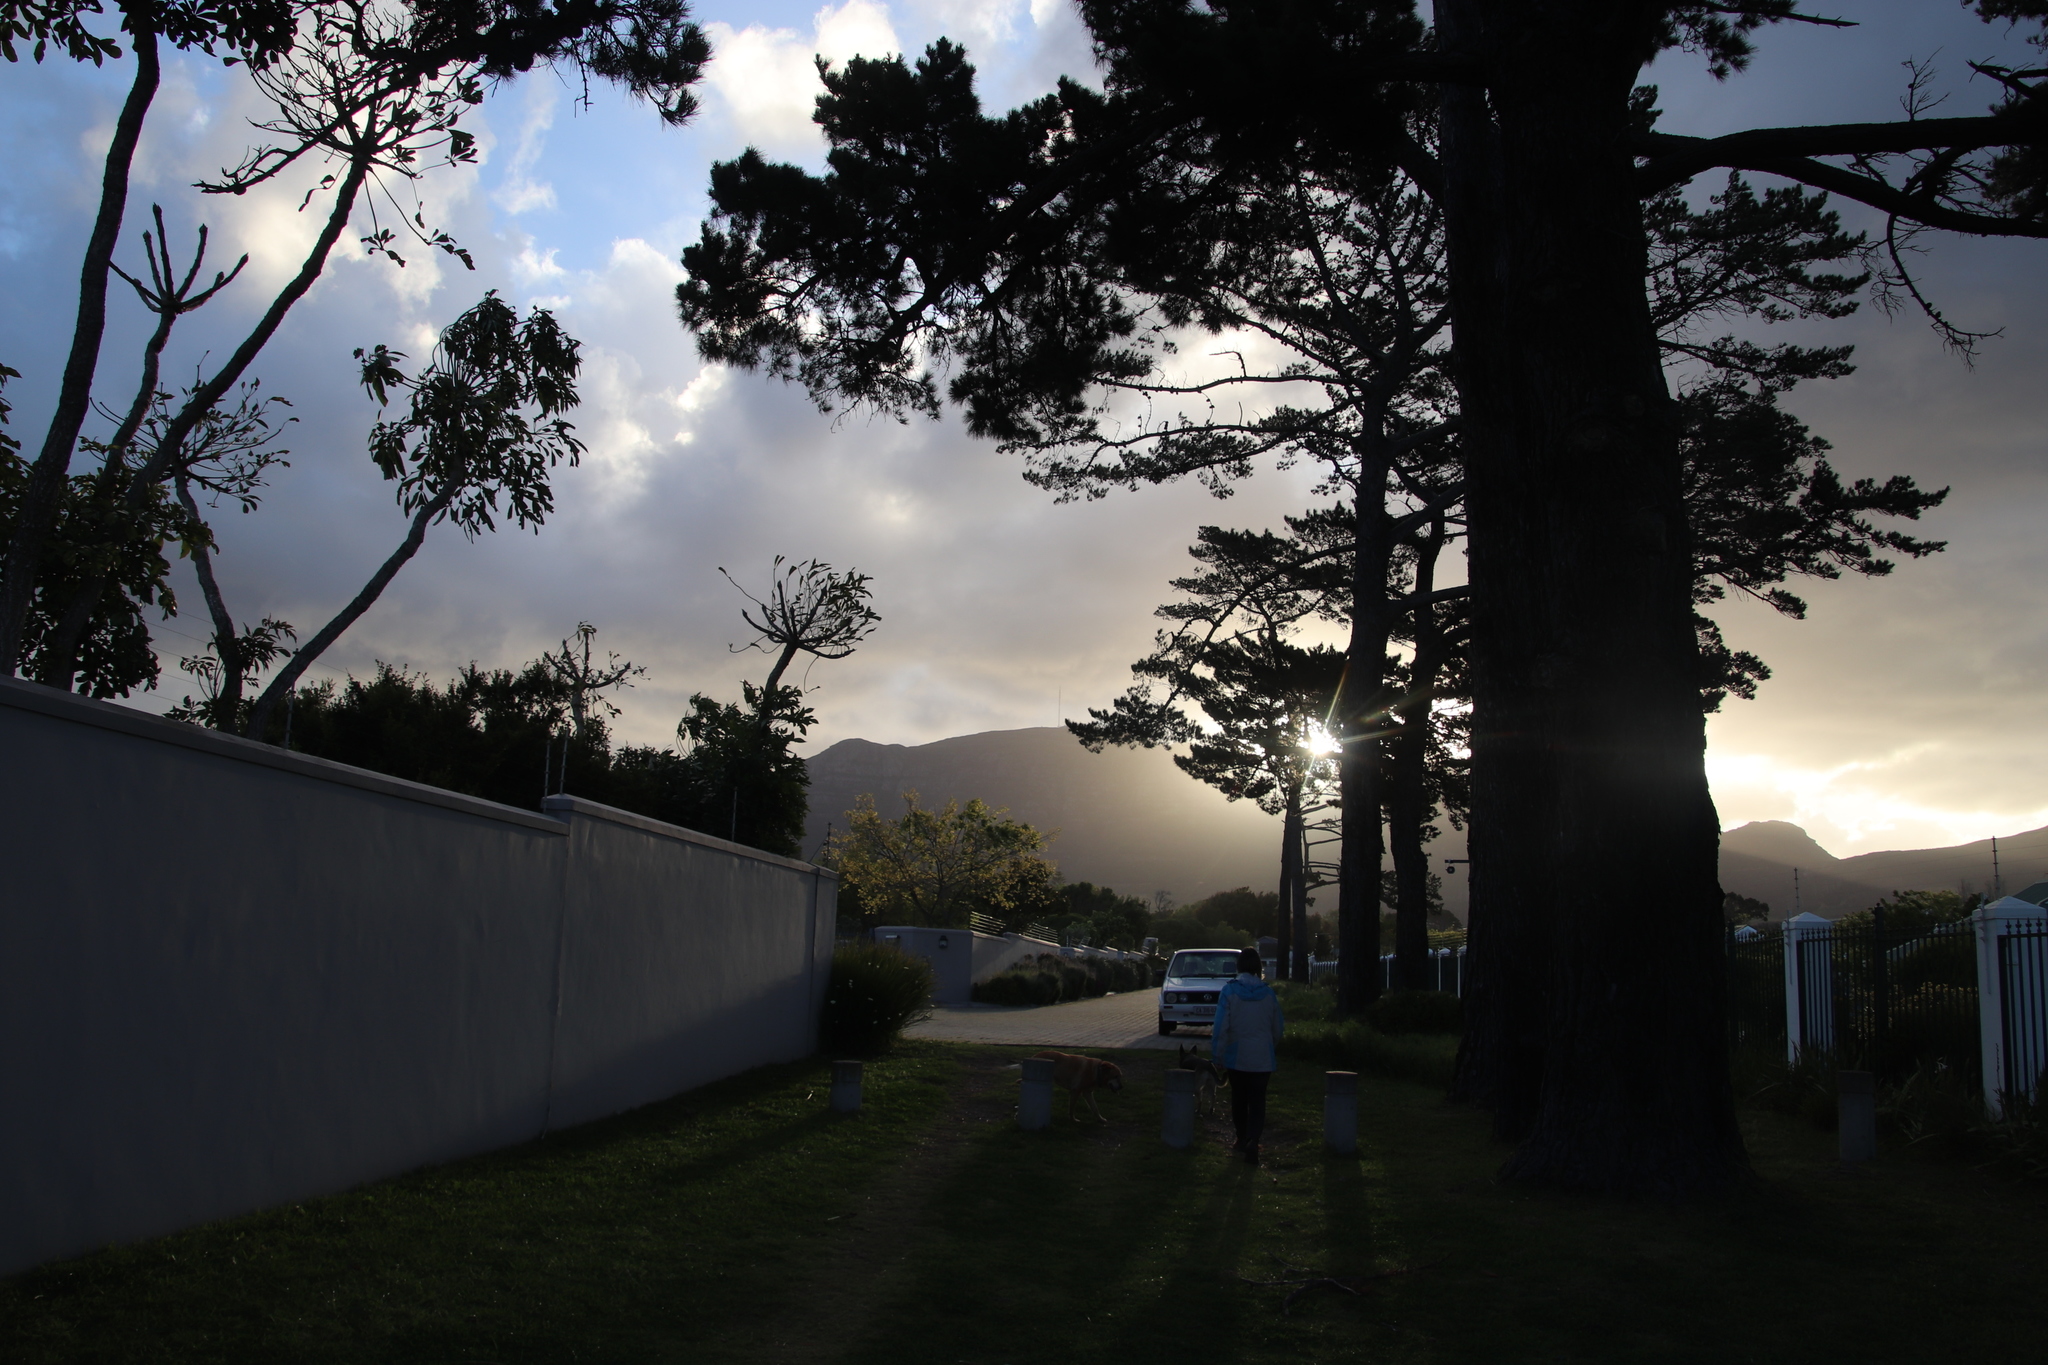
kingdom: Plantae
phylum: Tracheophyta
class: Pinopsida
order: Pinales
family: Pinaceae
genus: Pinus
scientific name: Pinus radiata
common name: Monterey pine
